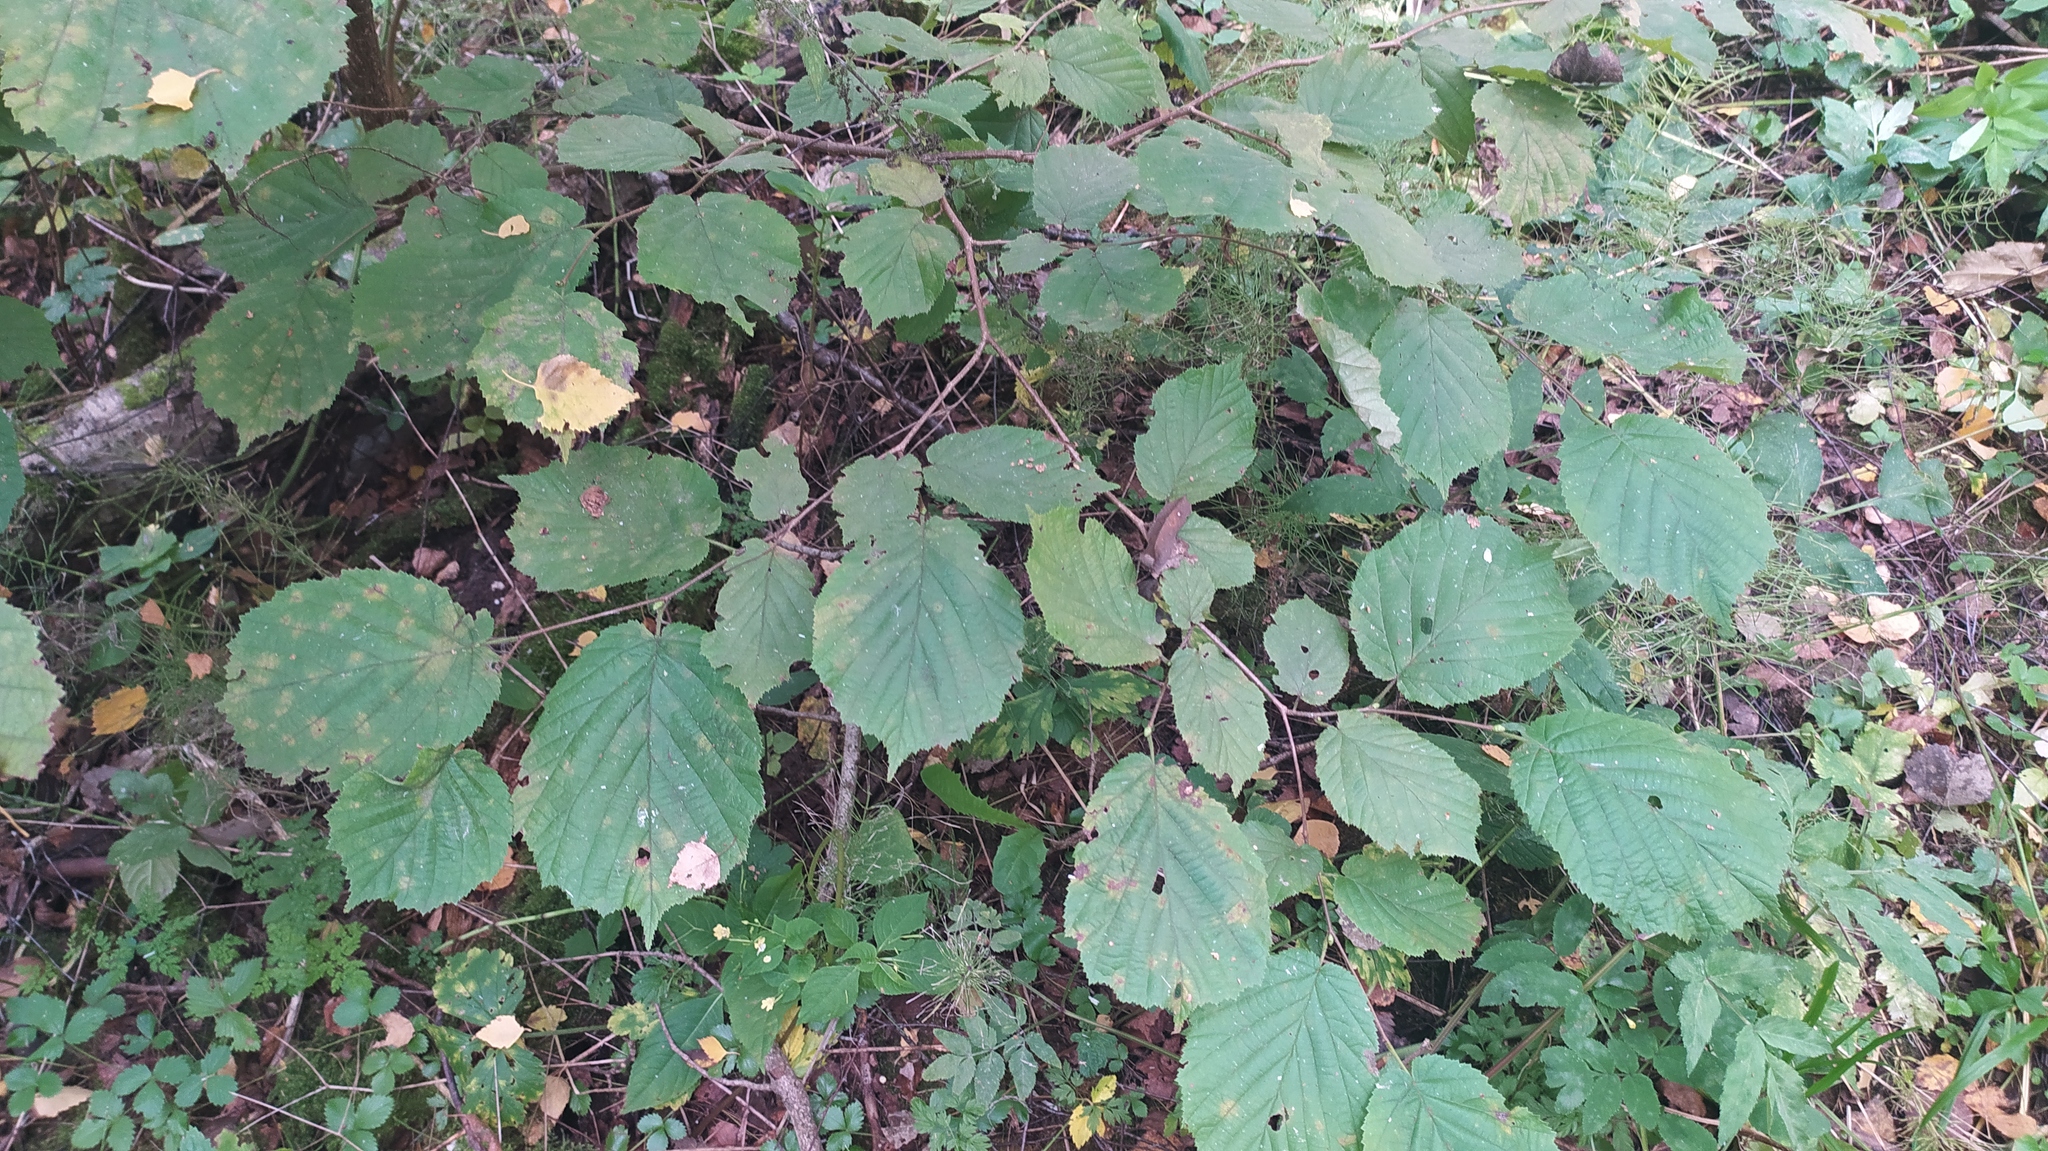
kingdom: Plantae
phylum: Tracheophyta
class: Magnoliopsida
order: Fagales
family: Betulaceae
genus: Corylus
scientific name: Corylus avellana
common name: European hazel
